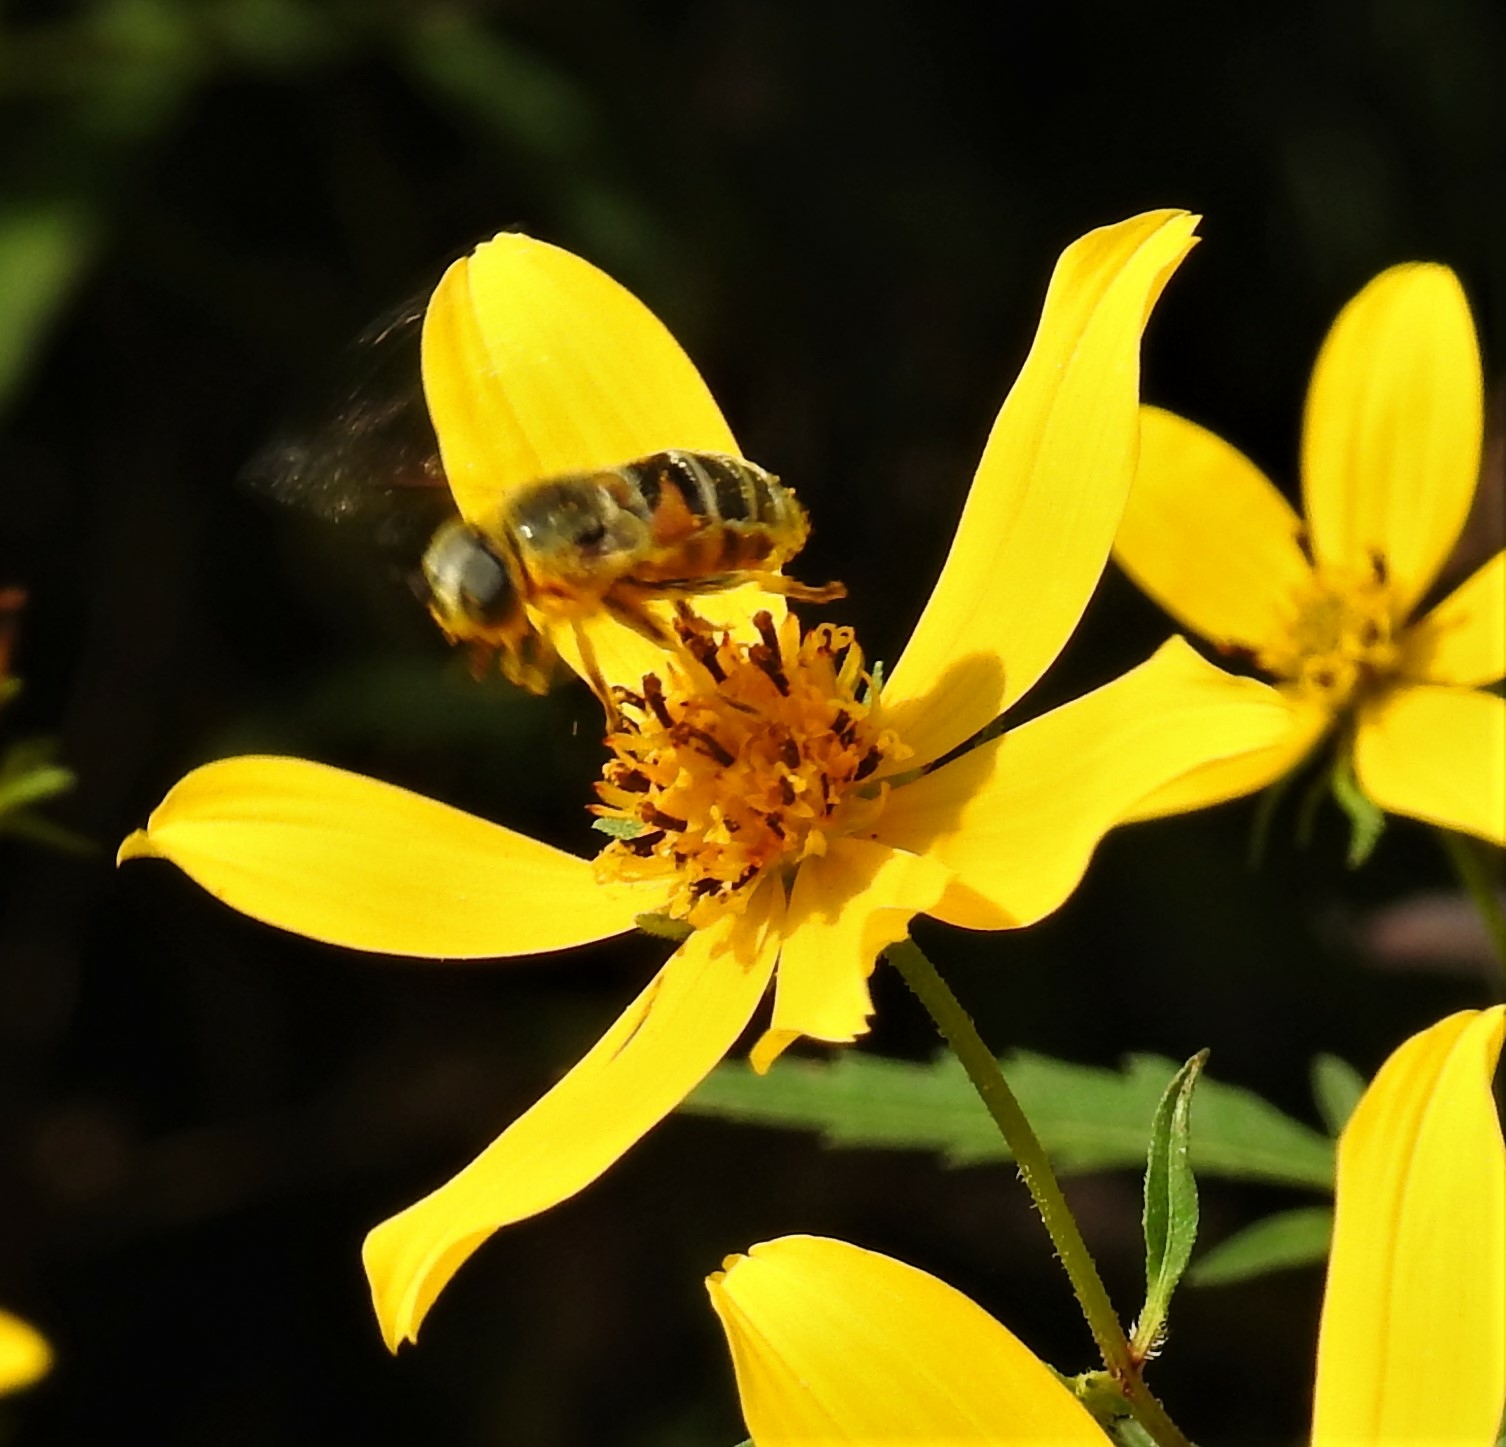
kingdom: Animalia
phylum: Arthropoda
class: Insecta
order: Diptera
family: Syrphidae
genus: Eristalis
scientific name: Eristalis stipator
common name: Yellow-shouldered drone fly
